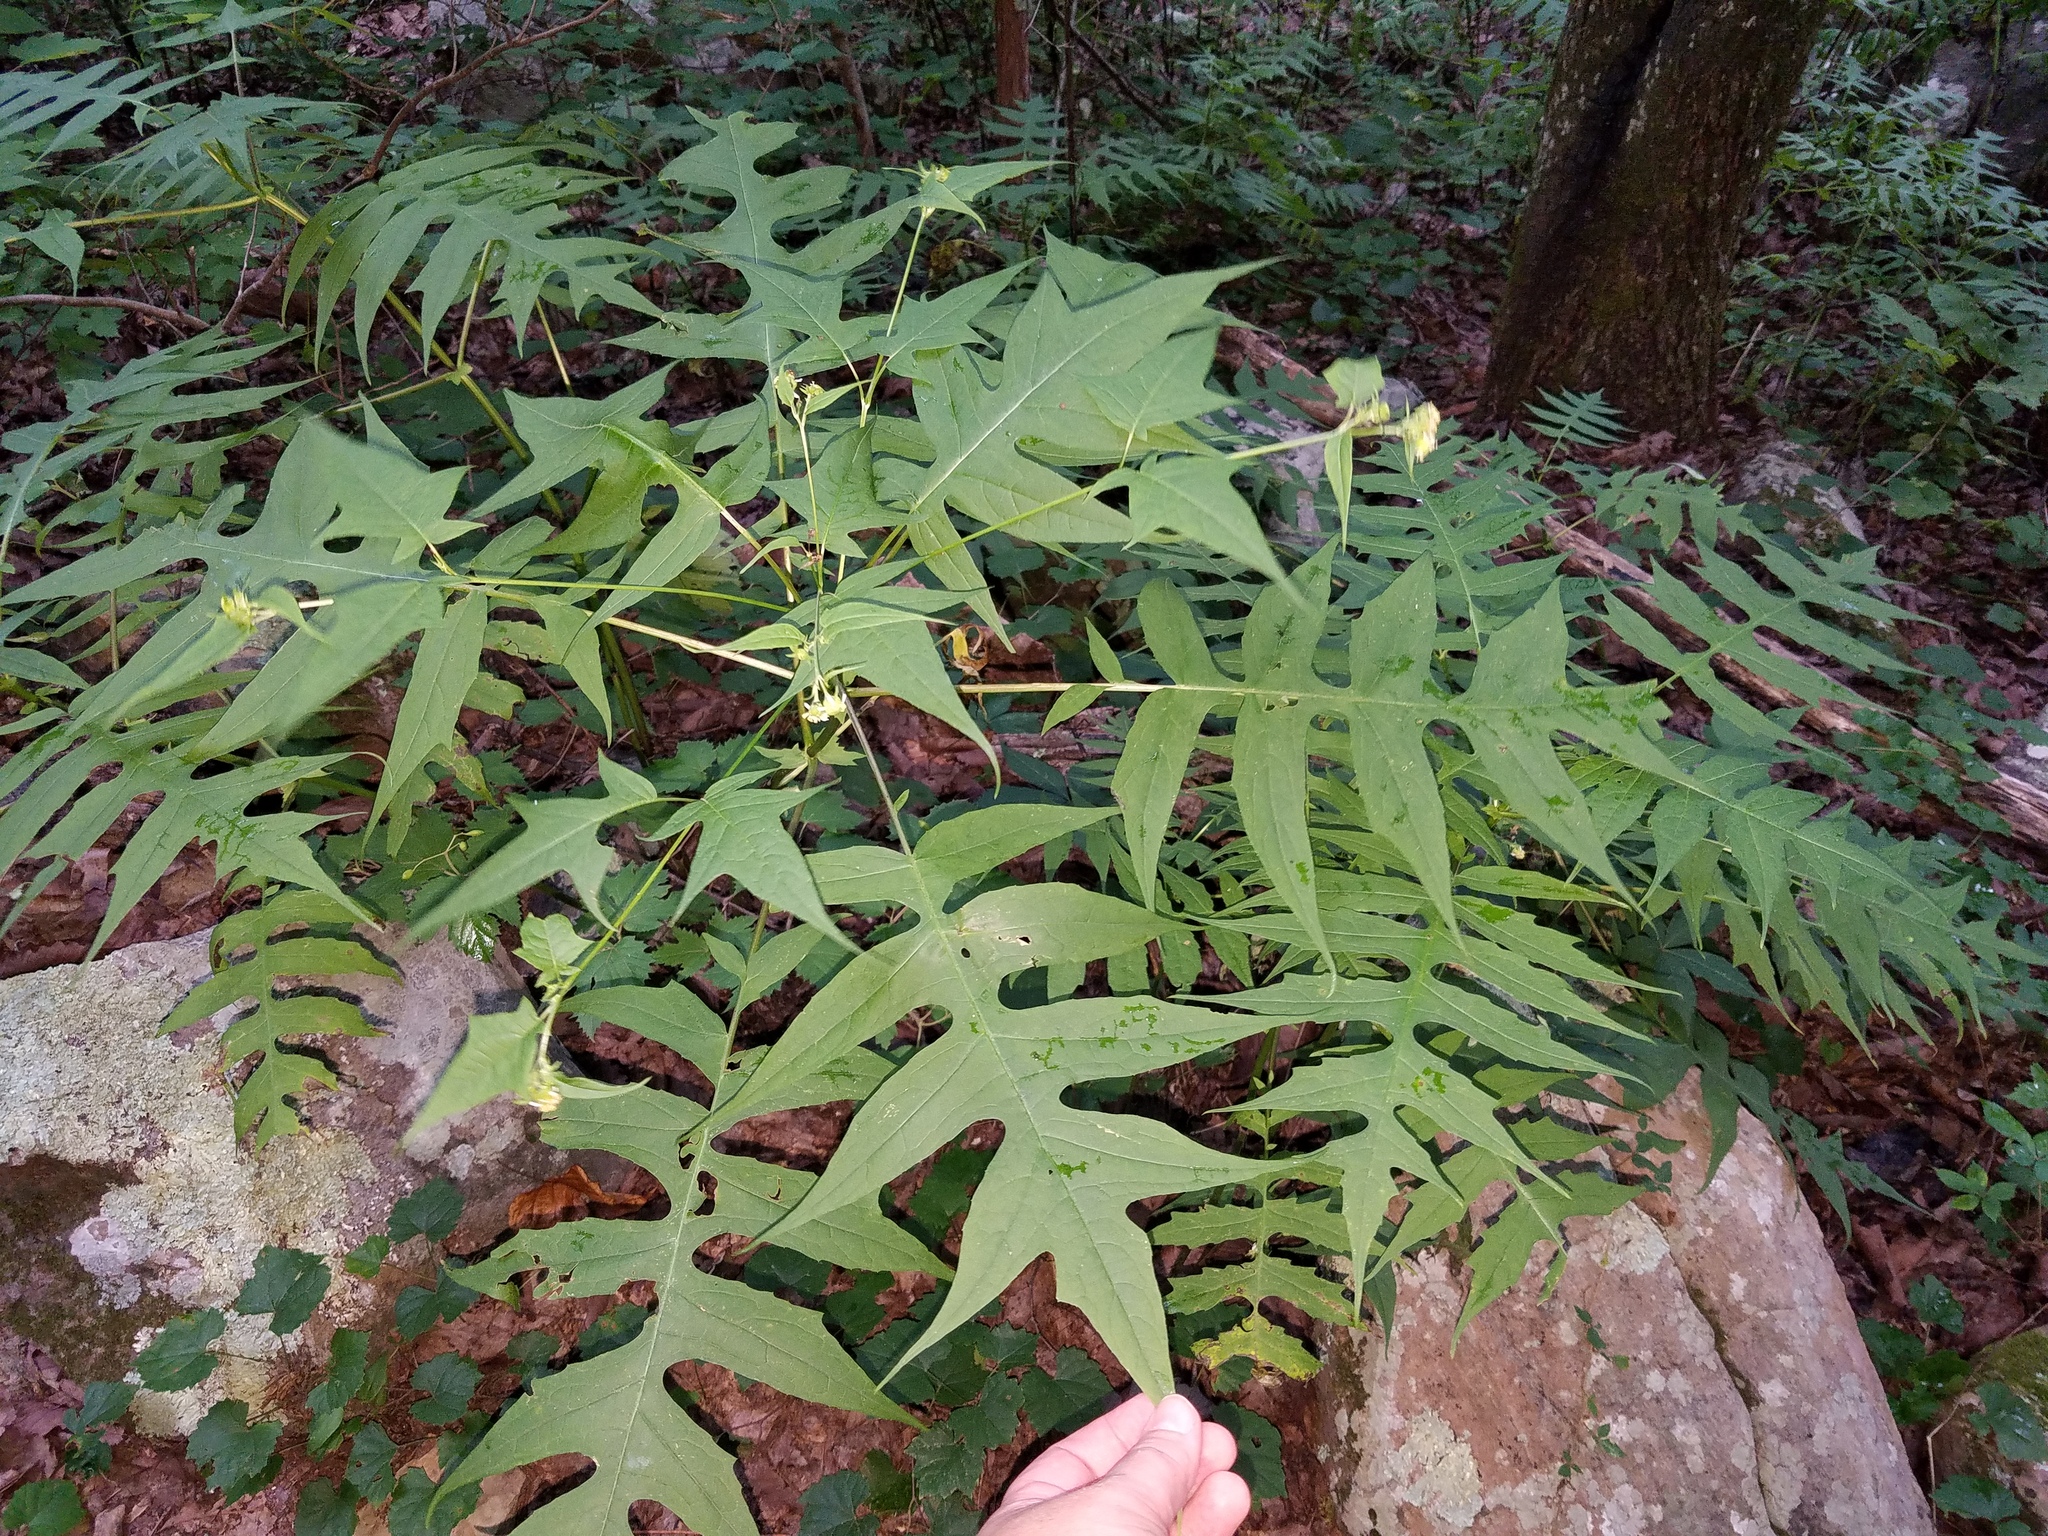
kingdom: Plantae
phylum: Tracheophyta
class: Magnoliopsida
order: Asterales
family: Asteraceae
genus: Polymnia
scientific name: Polymnia laevigata
